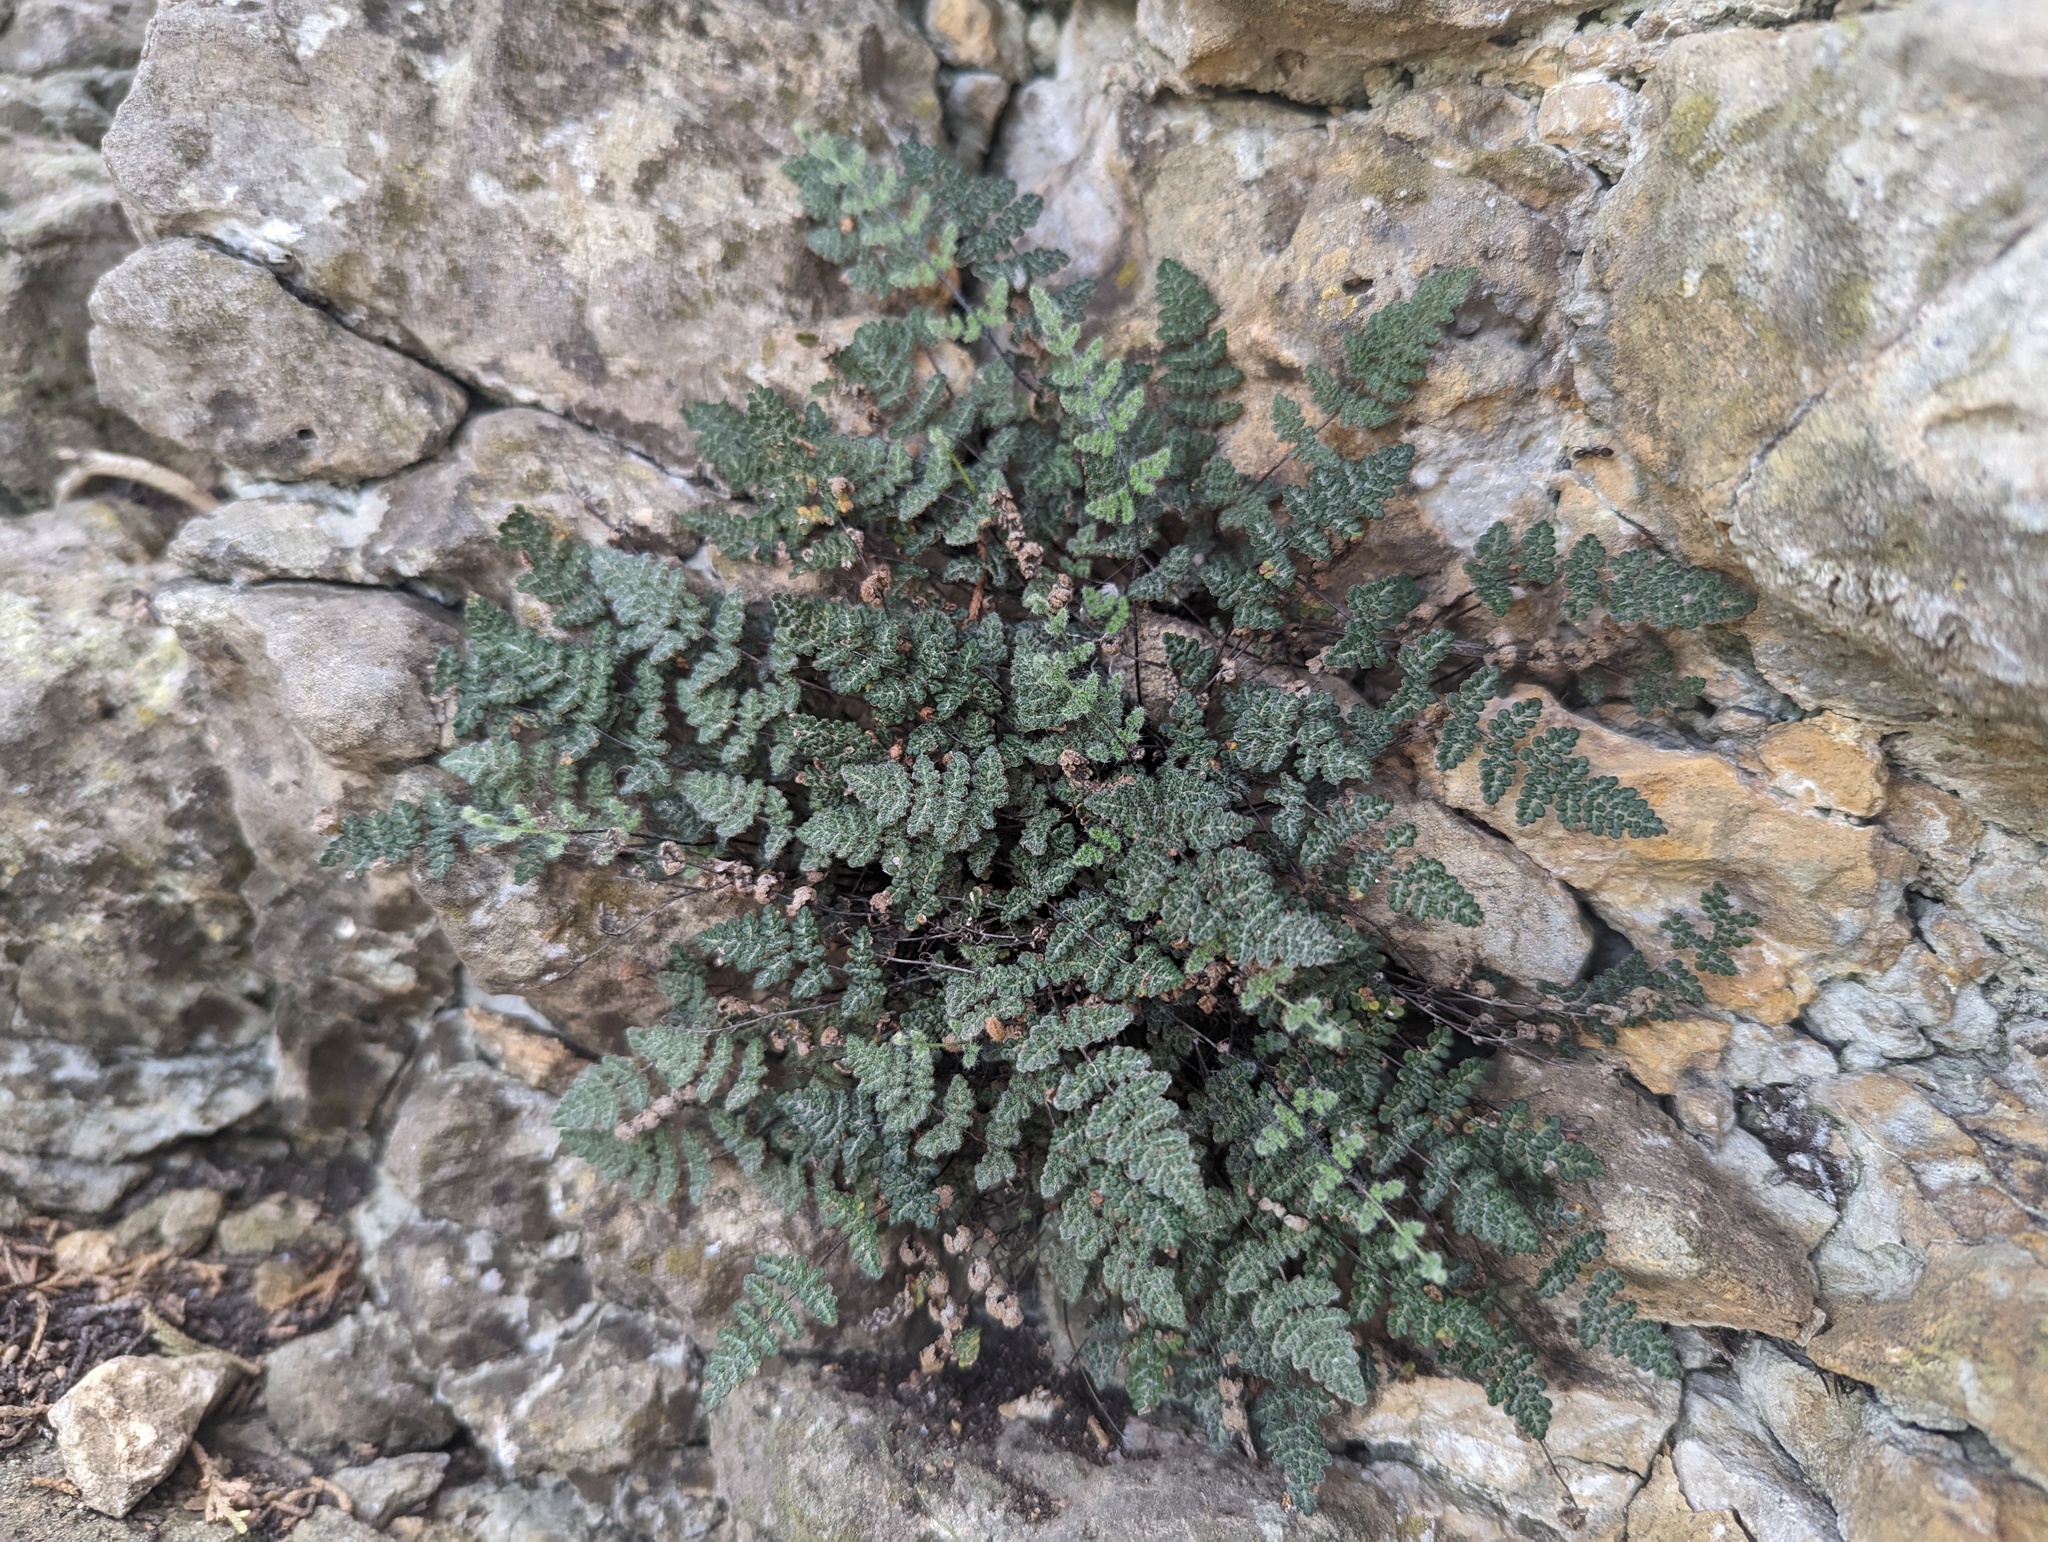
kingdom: Plantae
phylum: Tracheophyta
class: Polypodiopsida
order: Polypodiales
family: Pteridaceae
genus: Myriopteris
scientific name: Myriopteris gracilis
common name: Fee's lip fern
